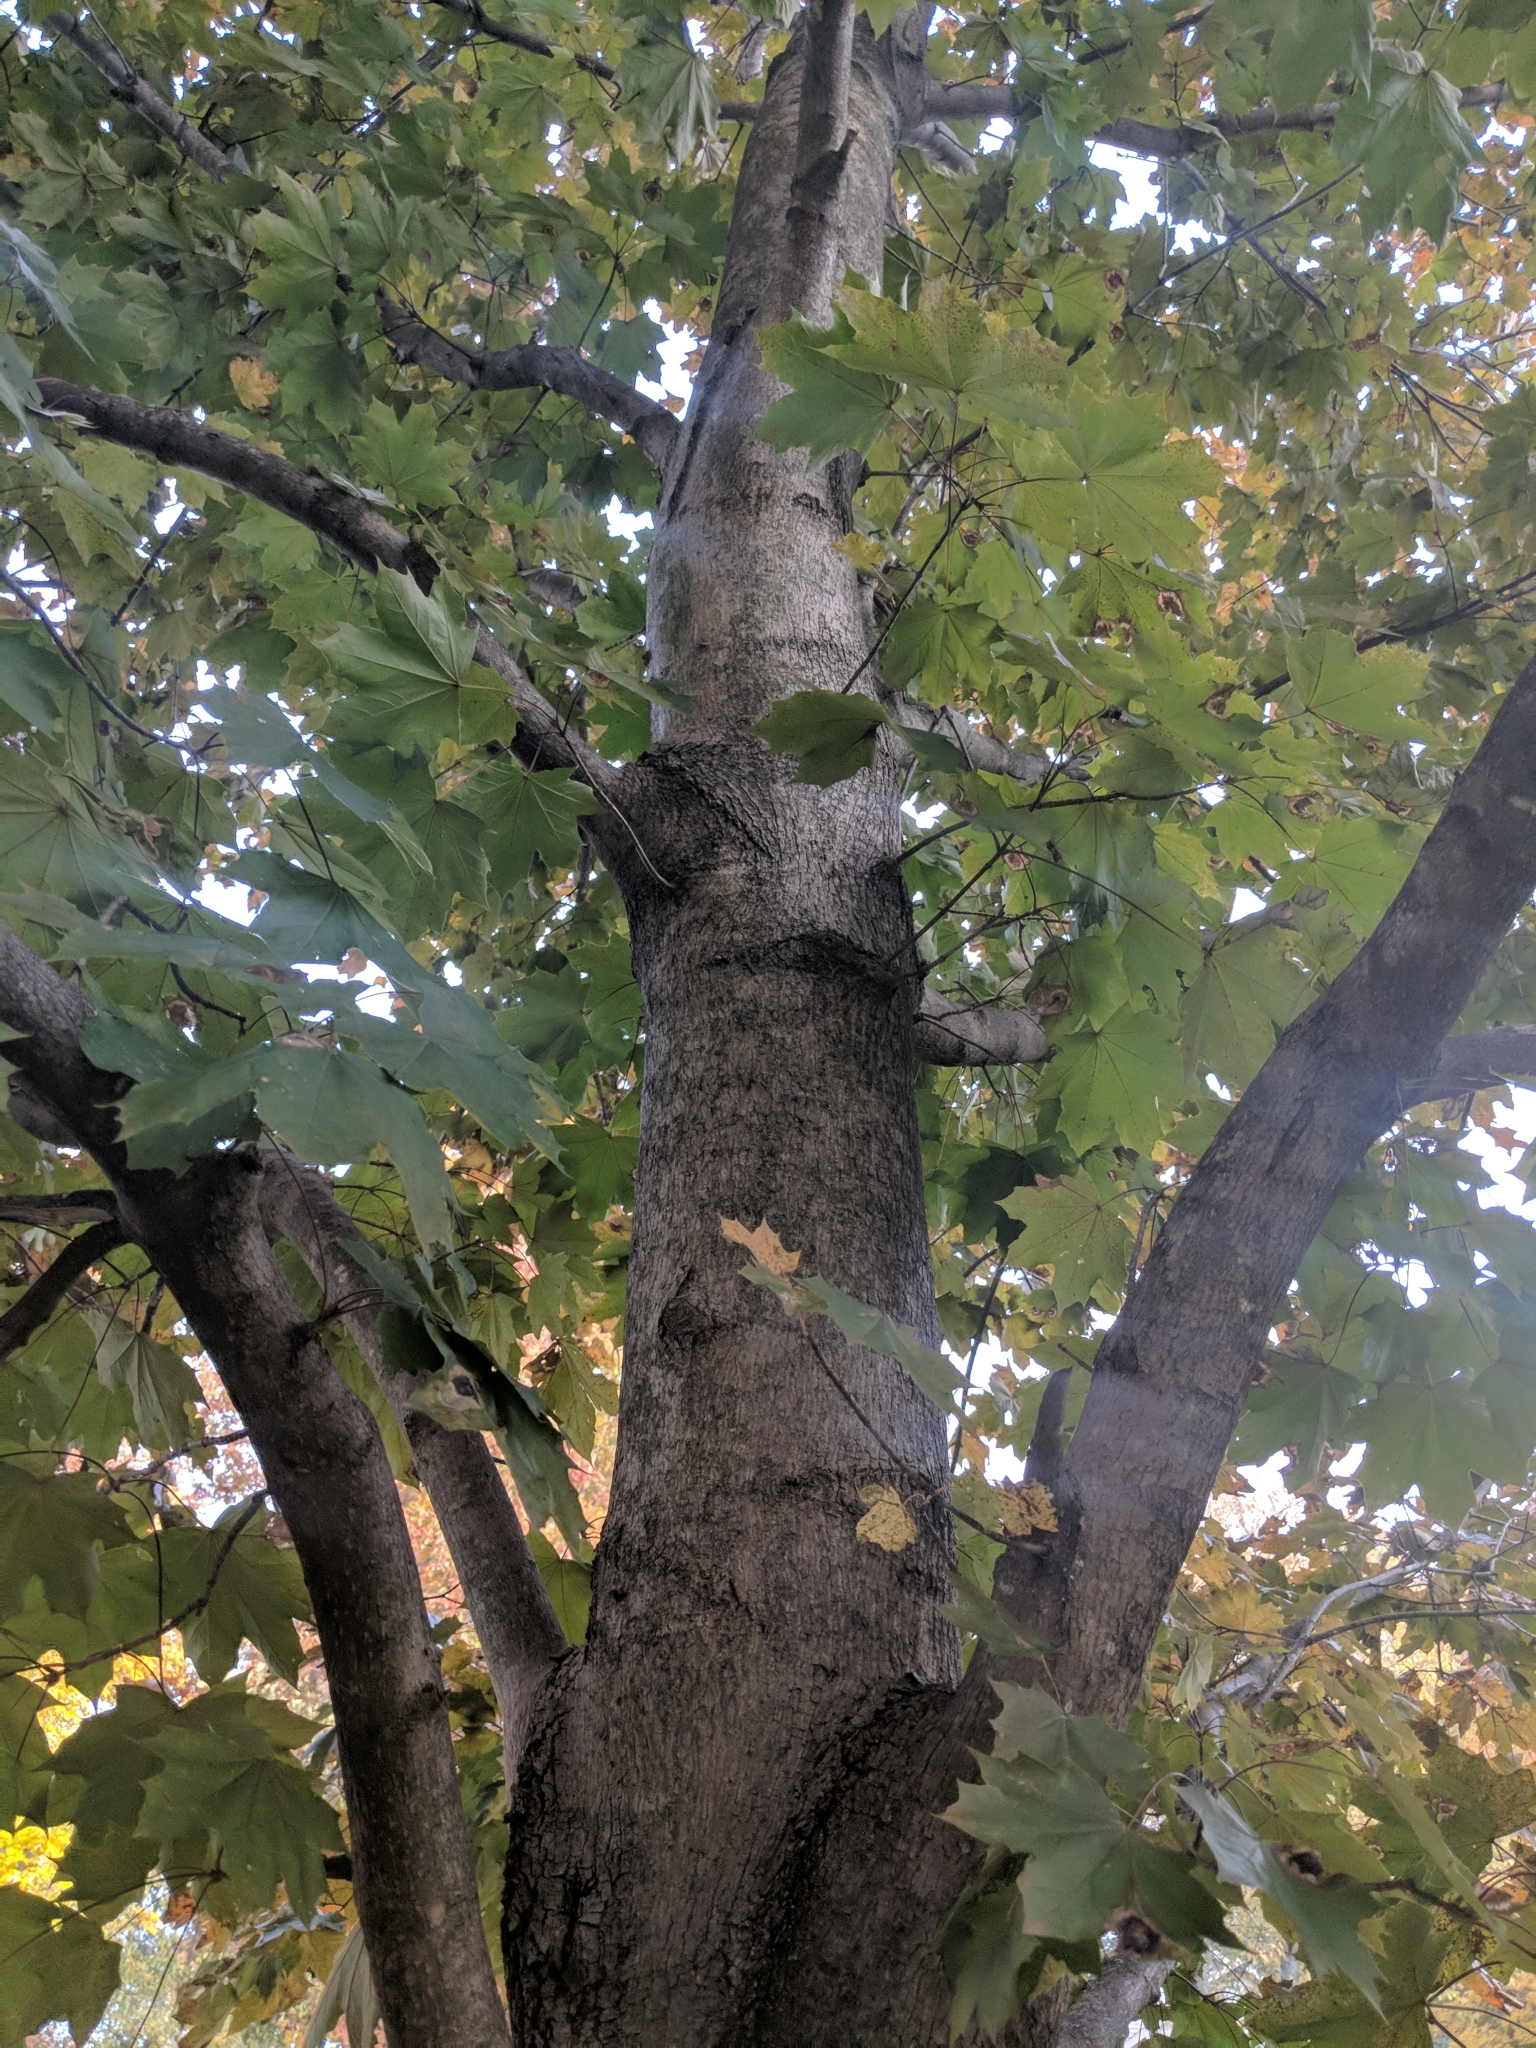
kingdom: Plantae
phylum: Tracheophyta
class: Magnoliopsida
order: Sapindales
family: Sapindaceae
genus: Acer
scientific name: Acer platanoides
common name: Norway maple
